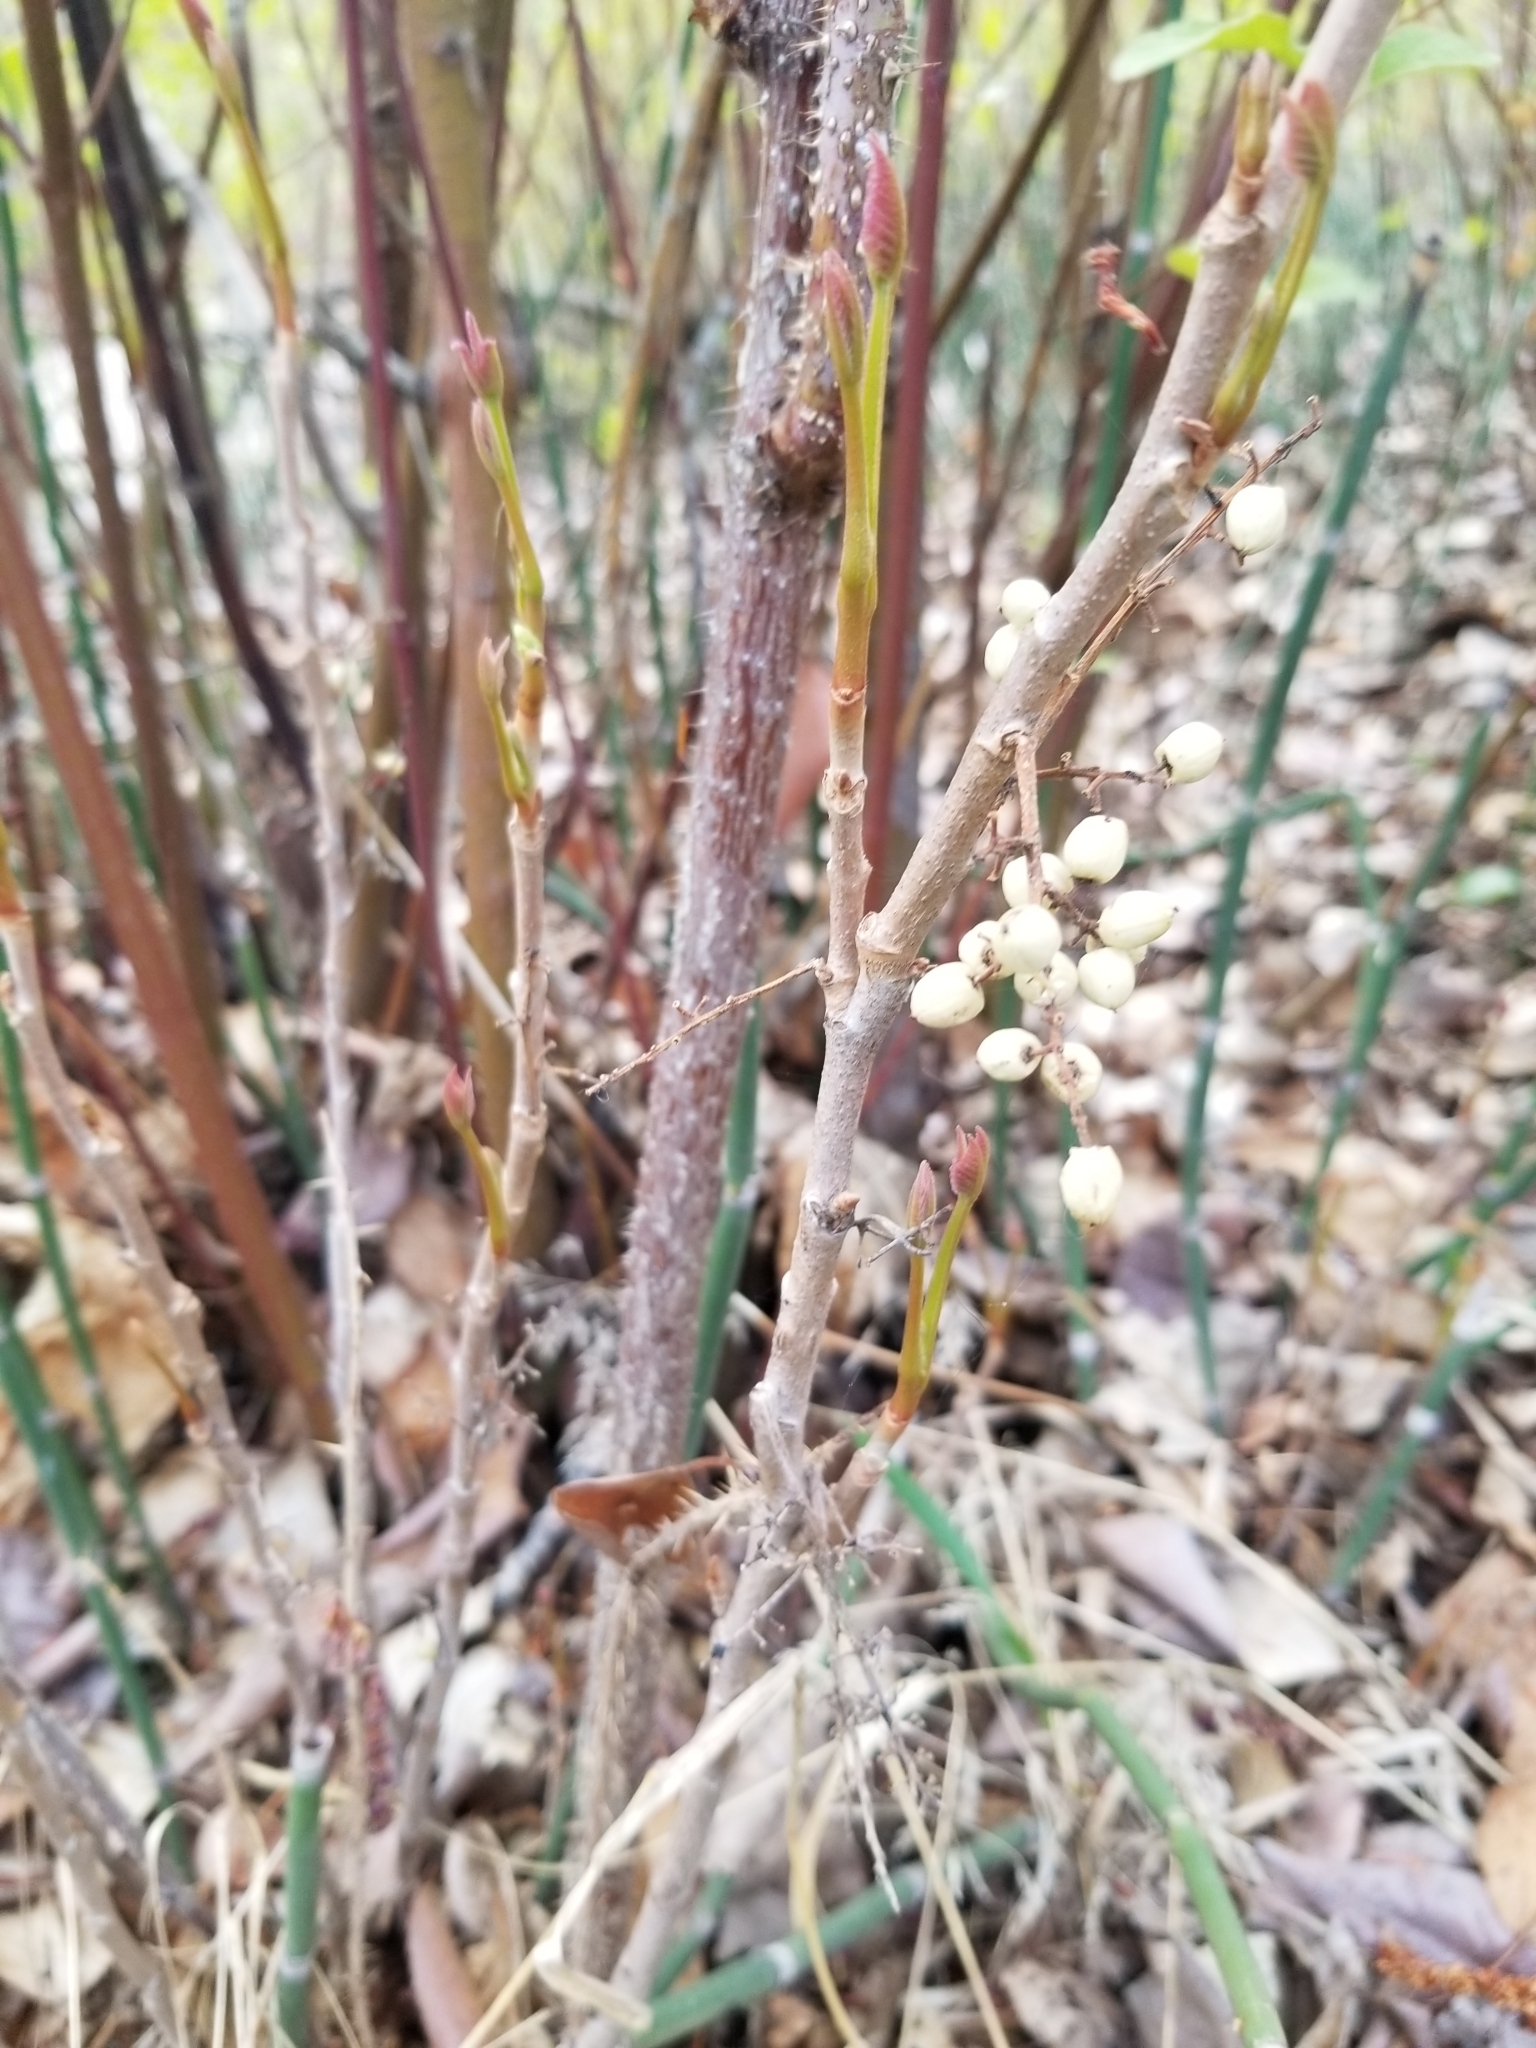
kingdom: Plantae
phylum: Tracheophyta
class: Magnoliopsida
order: Sapindales
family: Anacardiaceae
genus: Toxicodendron
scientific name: Toxicodendron rydbergii
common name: Rydberg's poison-ivy
